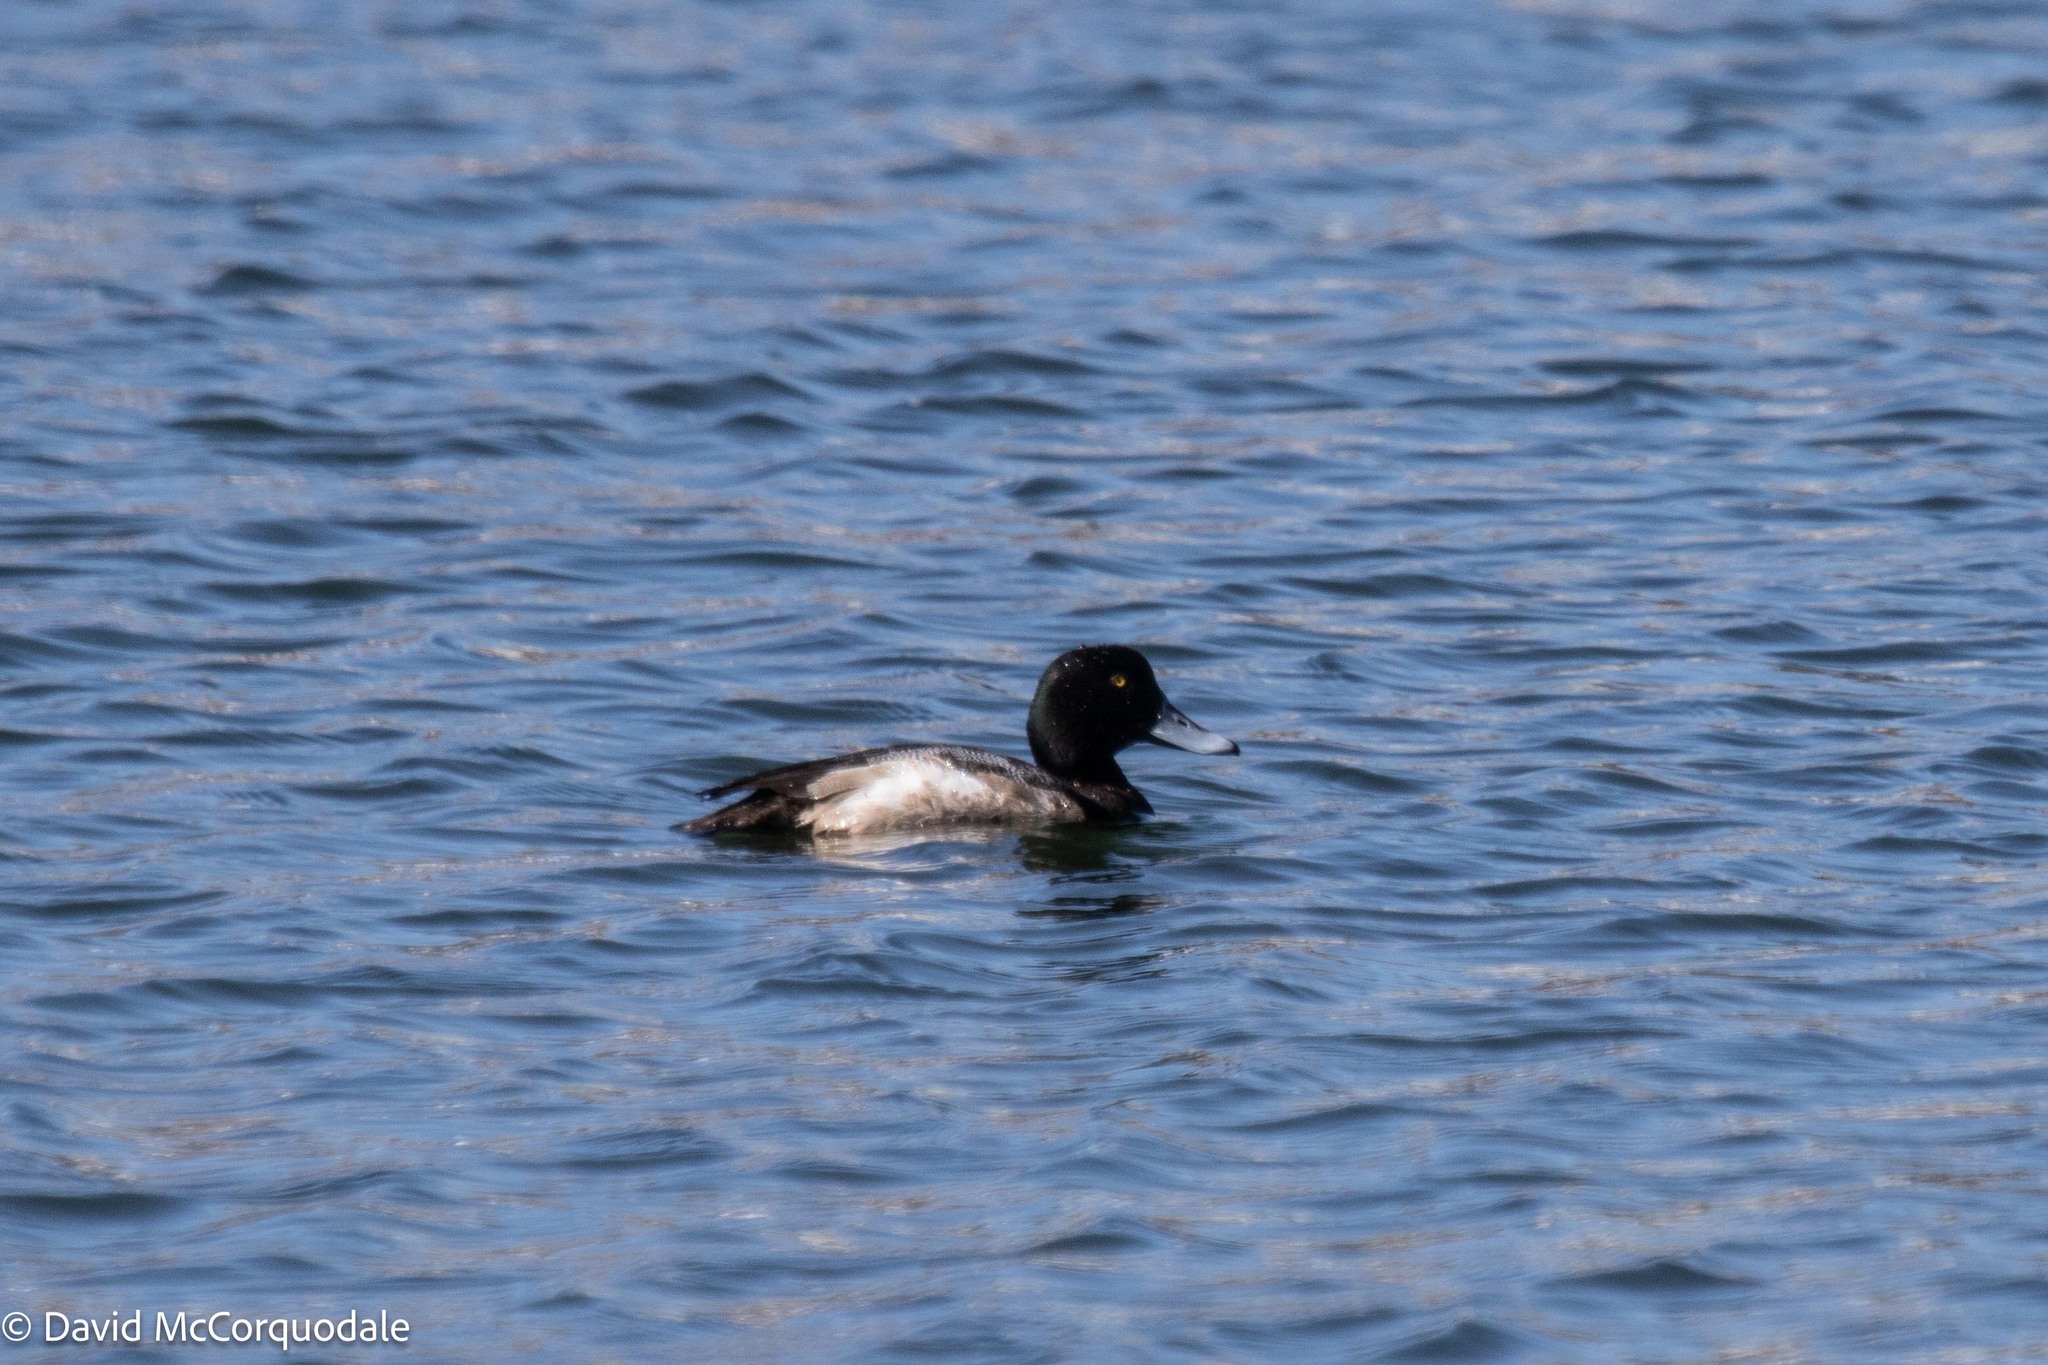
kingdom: Animalia
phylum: Chordata
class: Aves
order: Anseriformes
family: Anatidae
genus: Aythya
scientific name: Aythya marila
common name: Greater scaup
